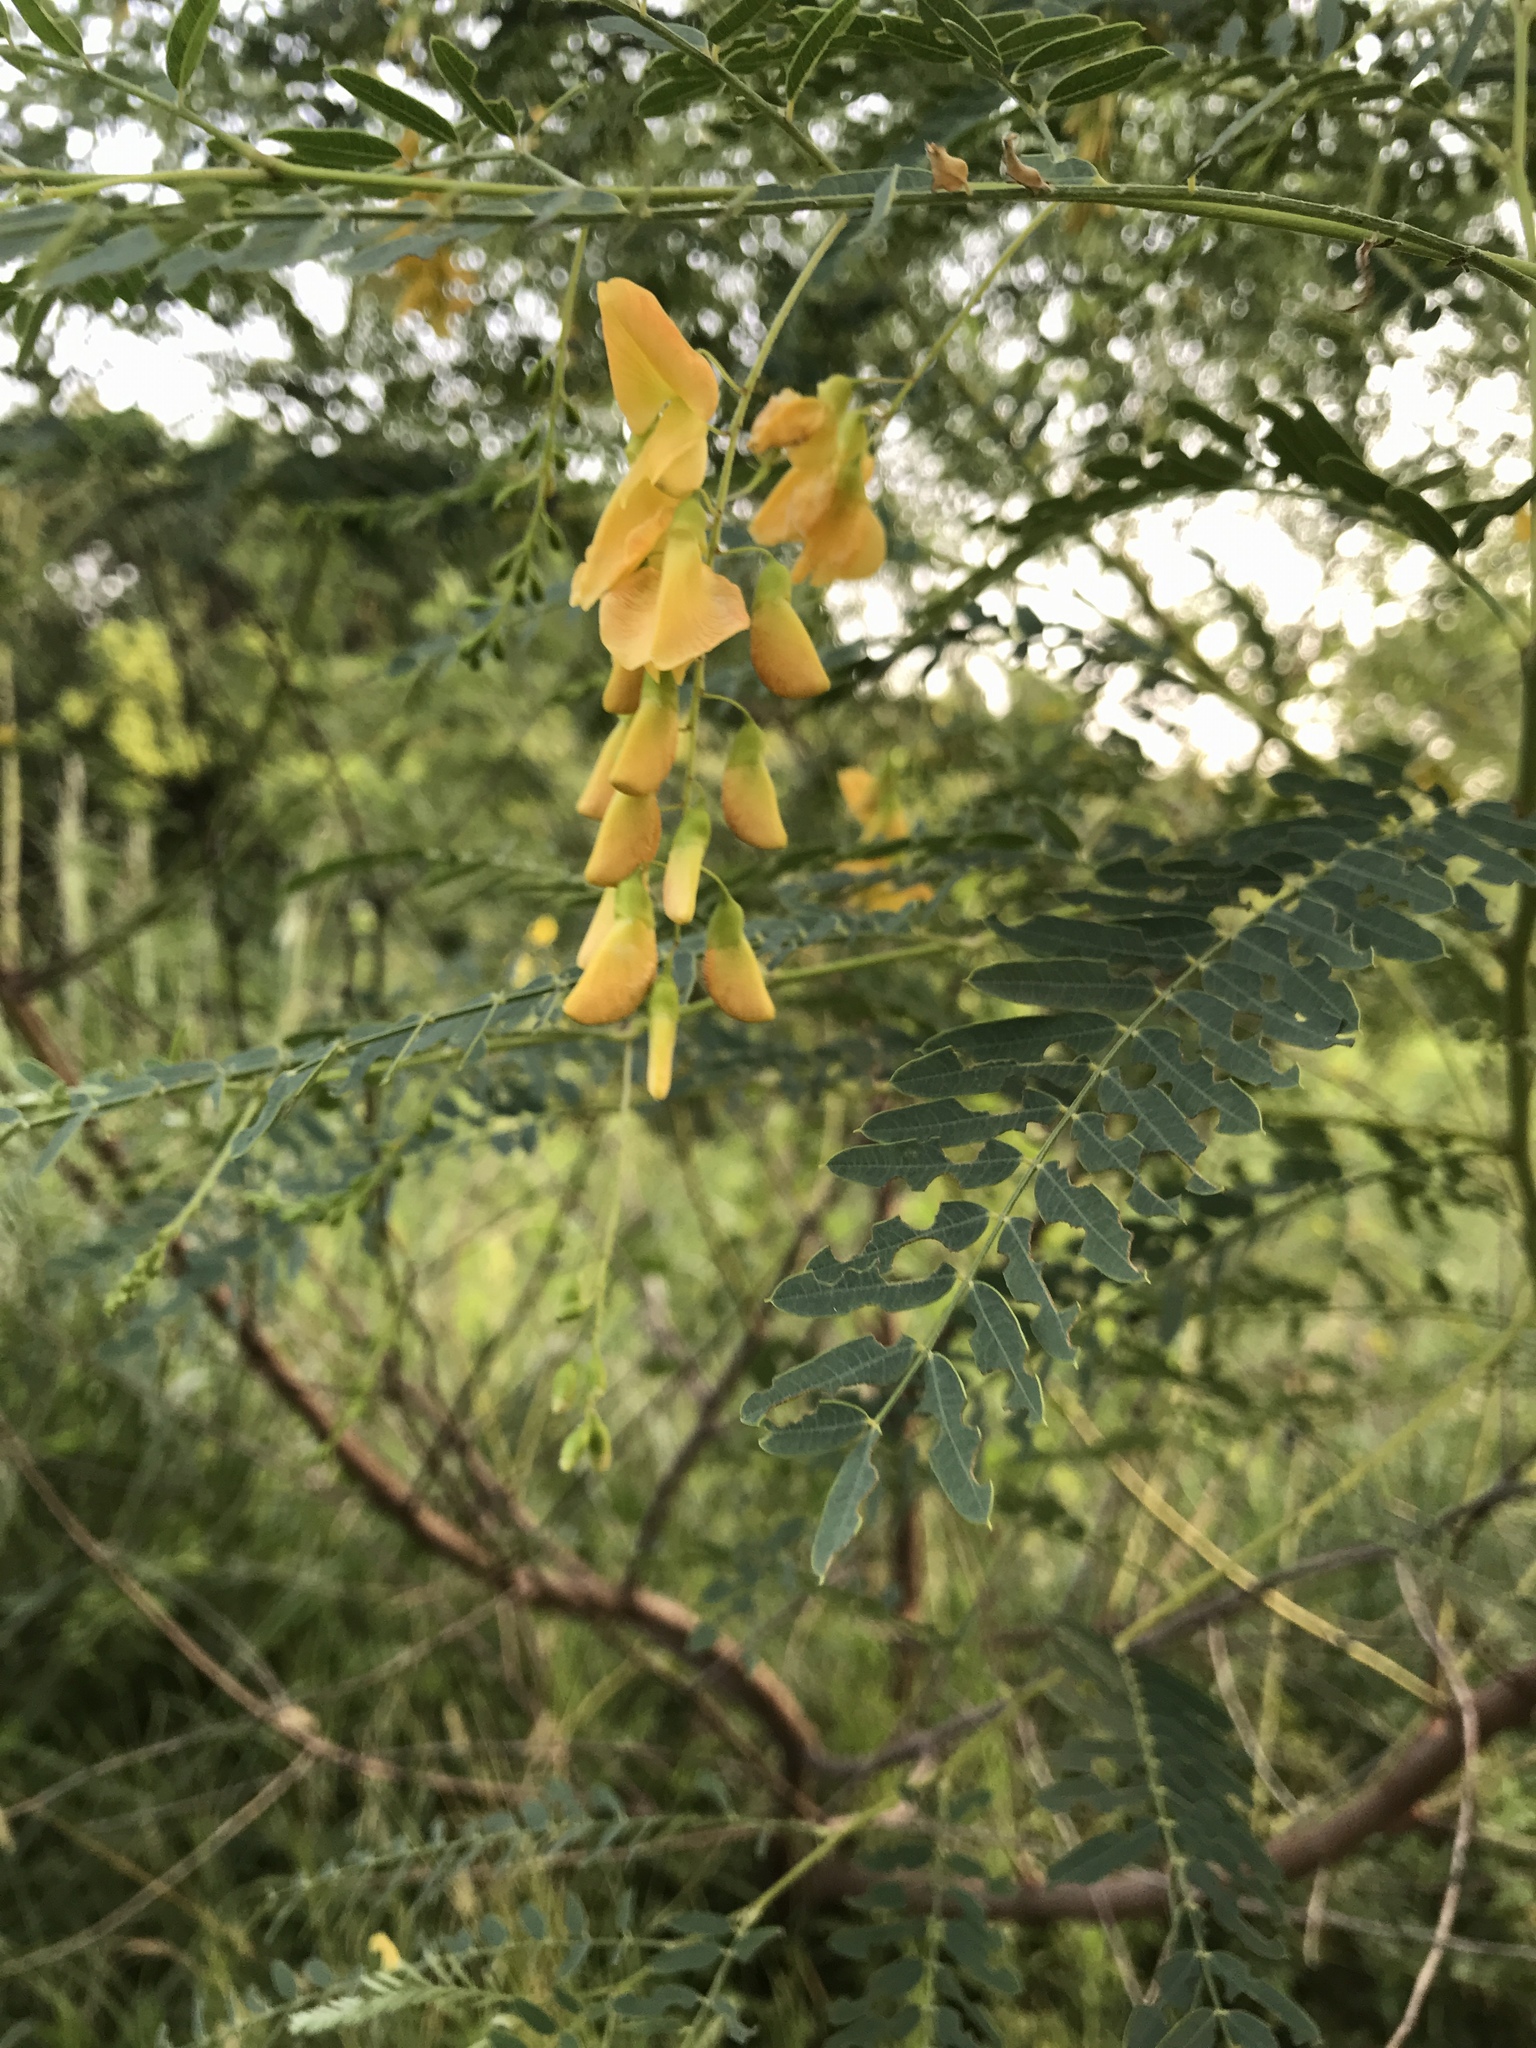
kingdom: Plantae
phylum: Tracheophyta
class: Magnoliopsida
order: Fabales
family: Fabaceae
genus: Sesbania
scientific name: Sesbania drummondii
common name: Poison-bean
